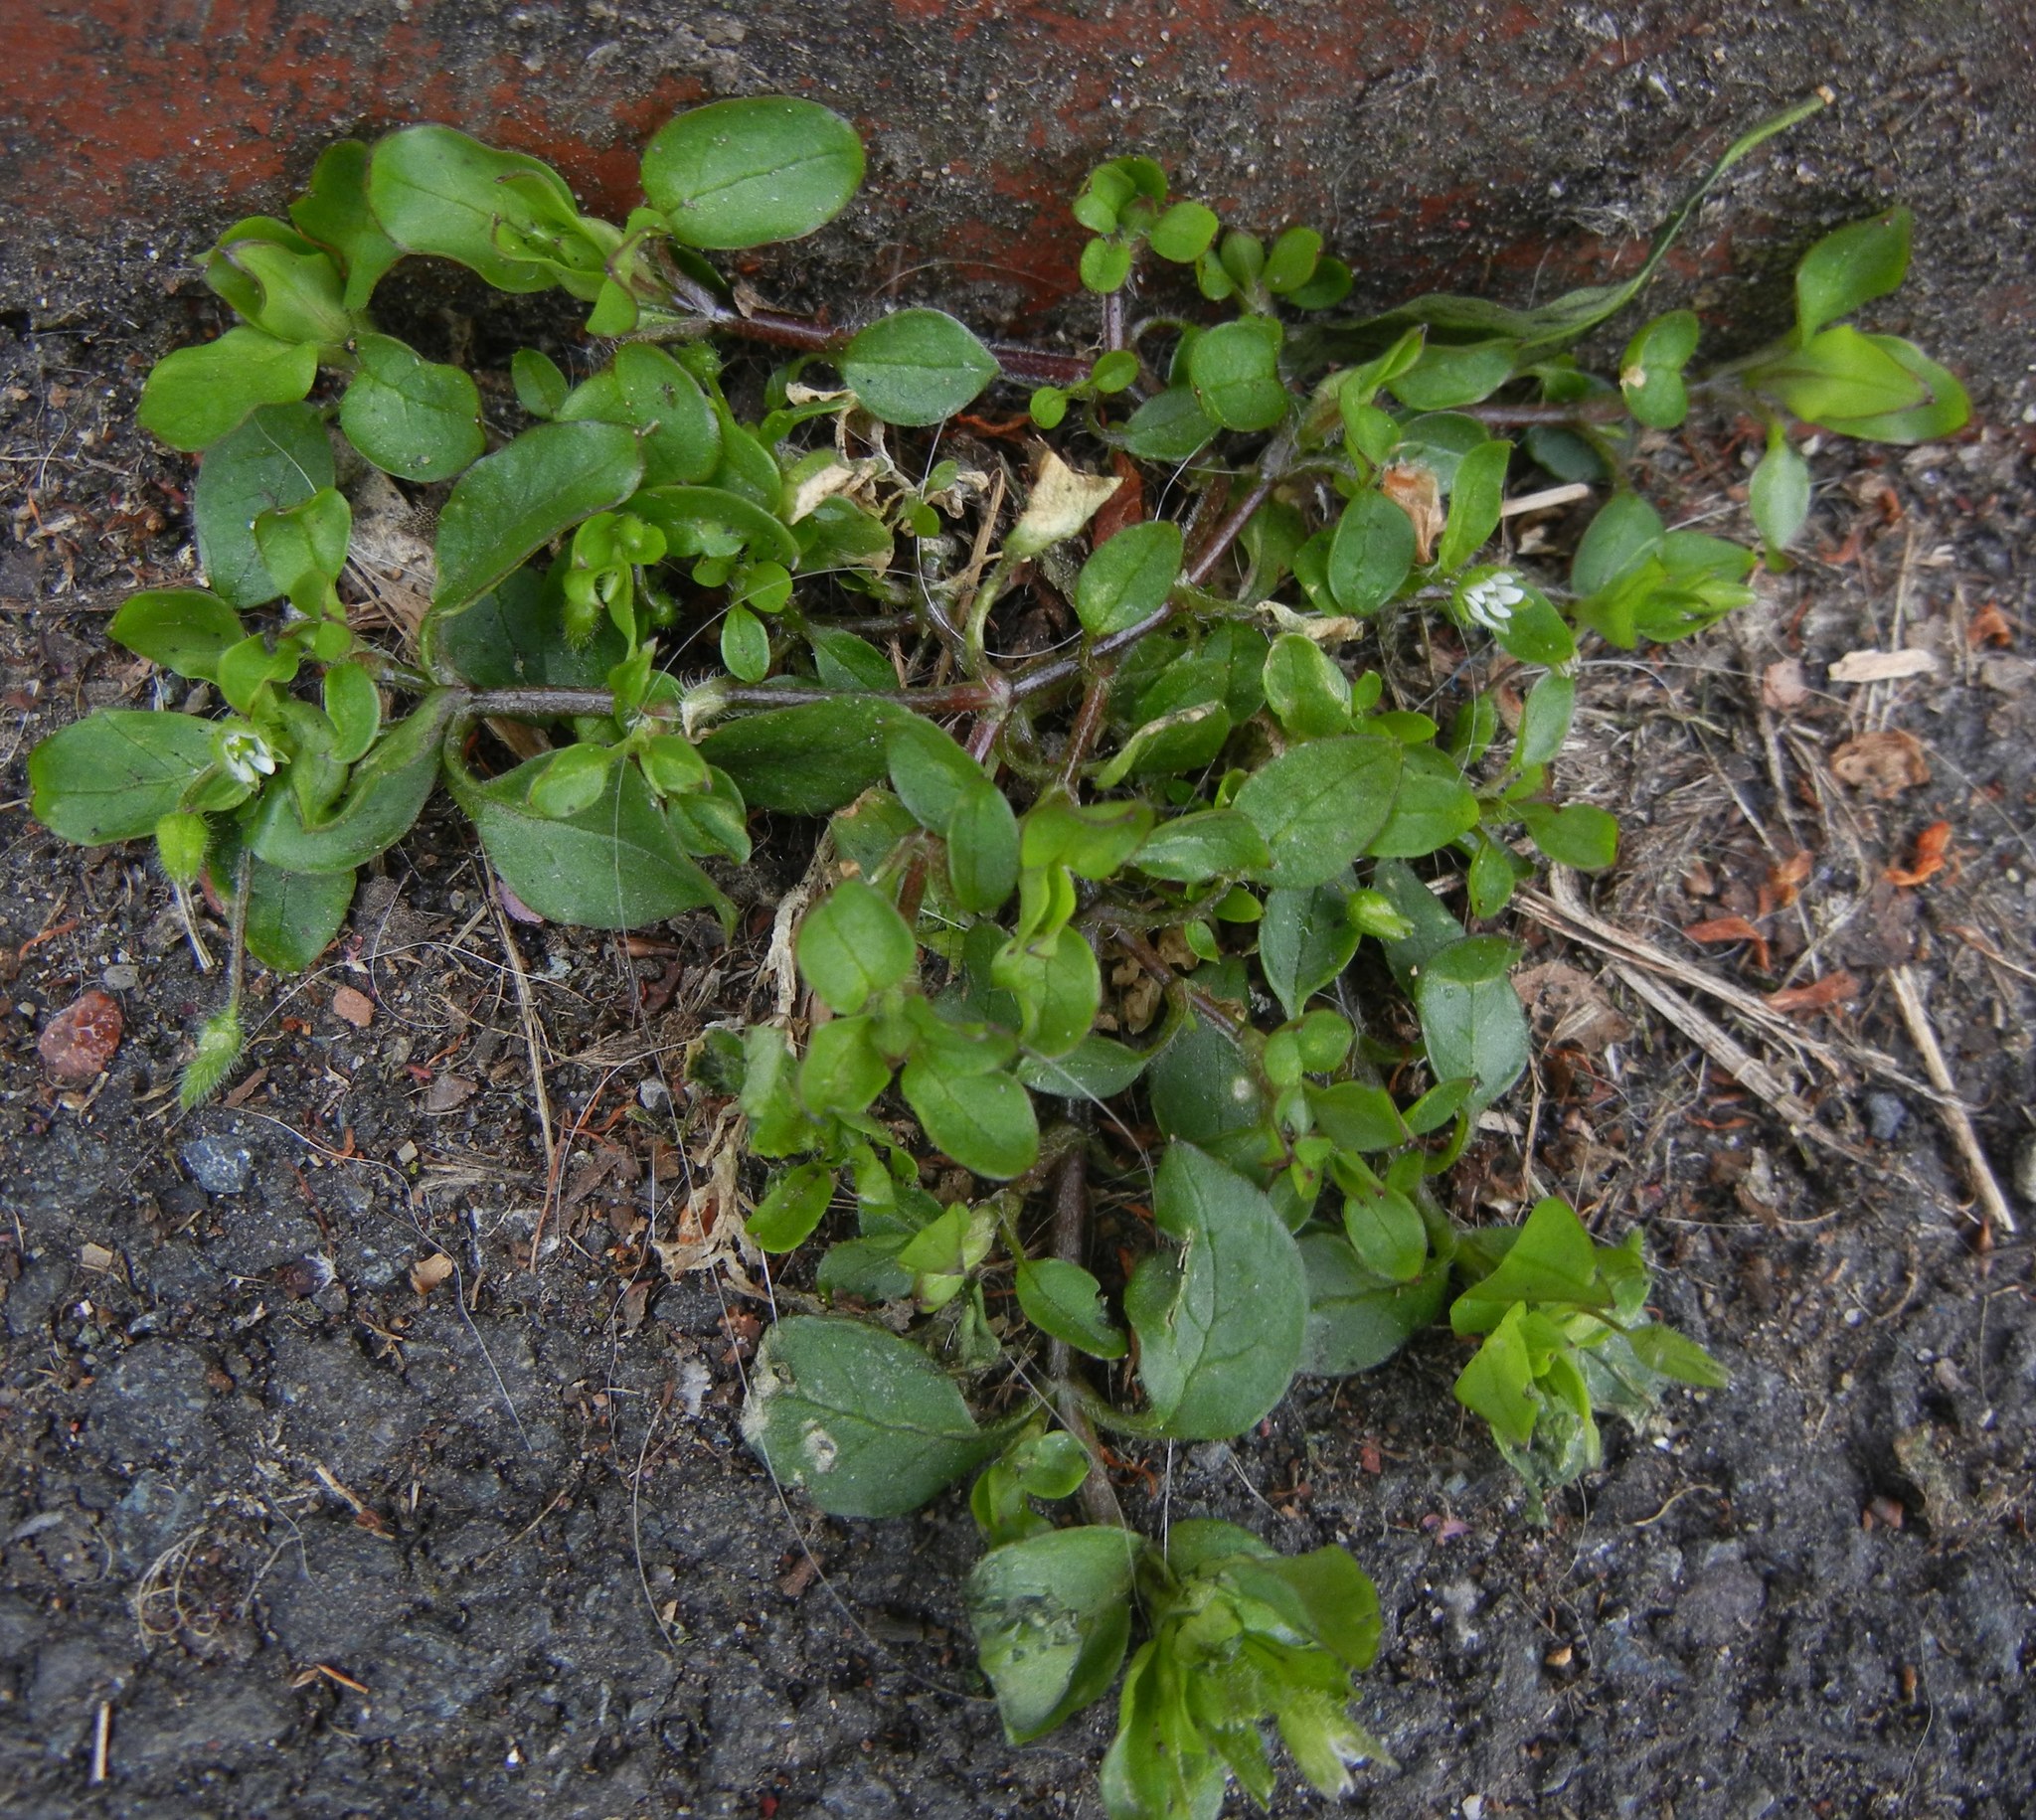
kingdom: Plantae
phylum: Tracheophyta
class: Magnoliopsida
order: Caryophyllales
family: Caryophyllaceae
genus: Stellaria
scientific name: Stellaria media
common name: Common chickweed
